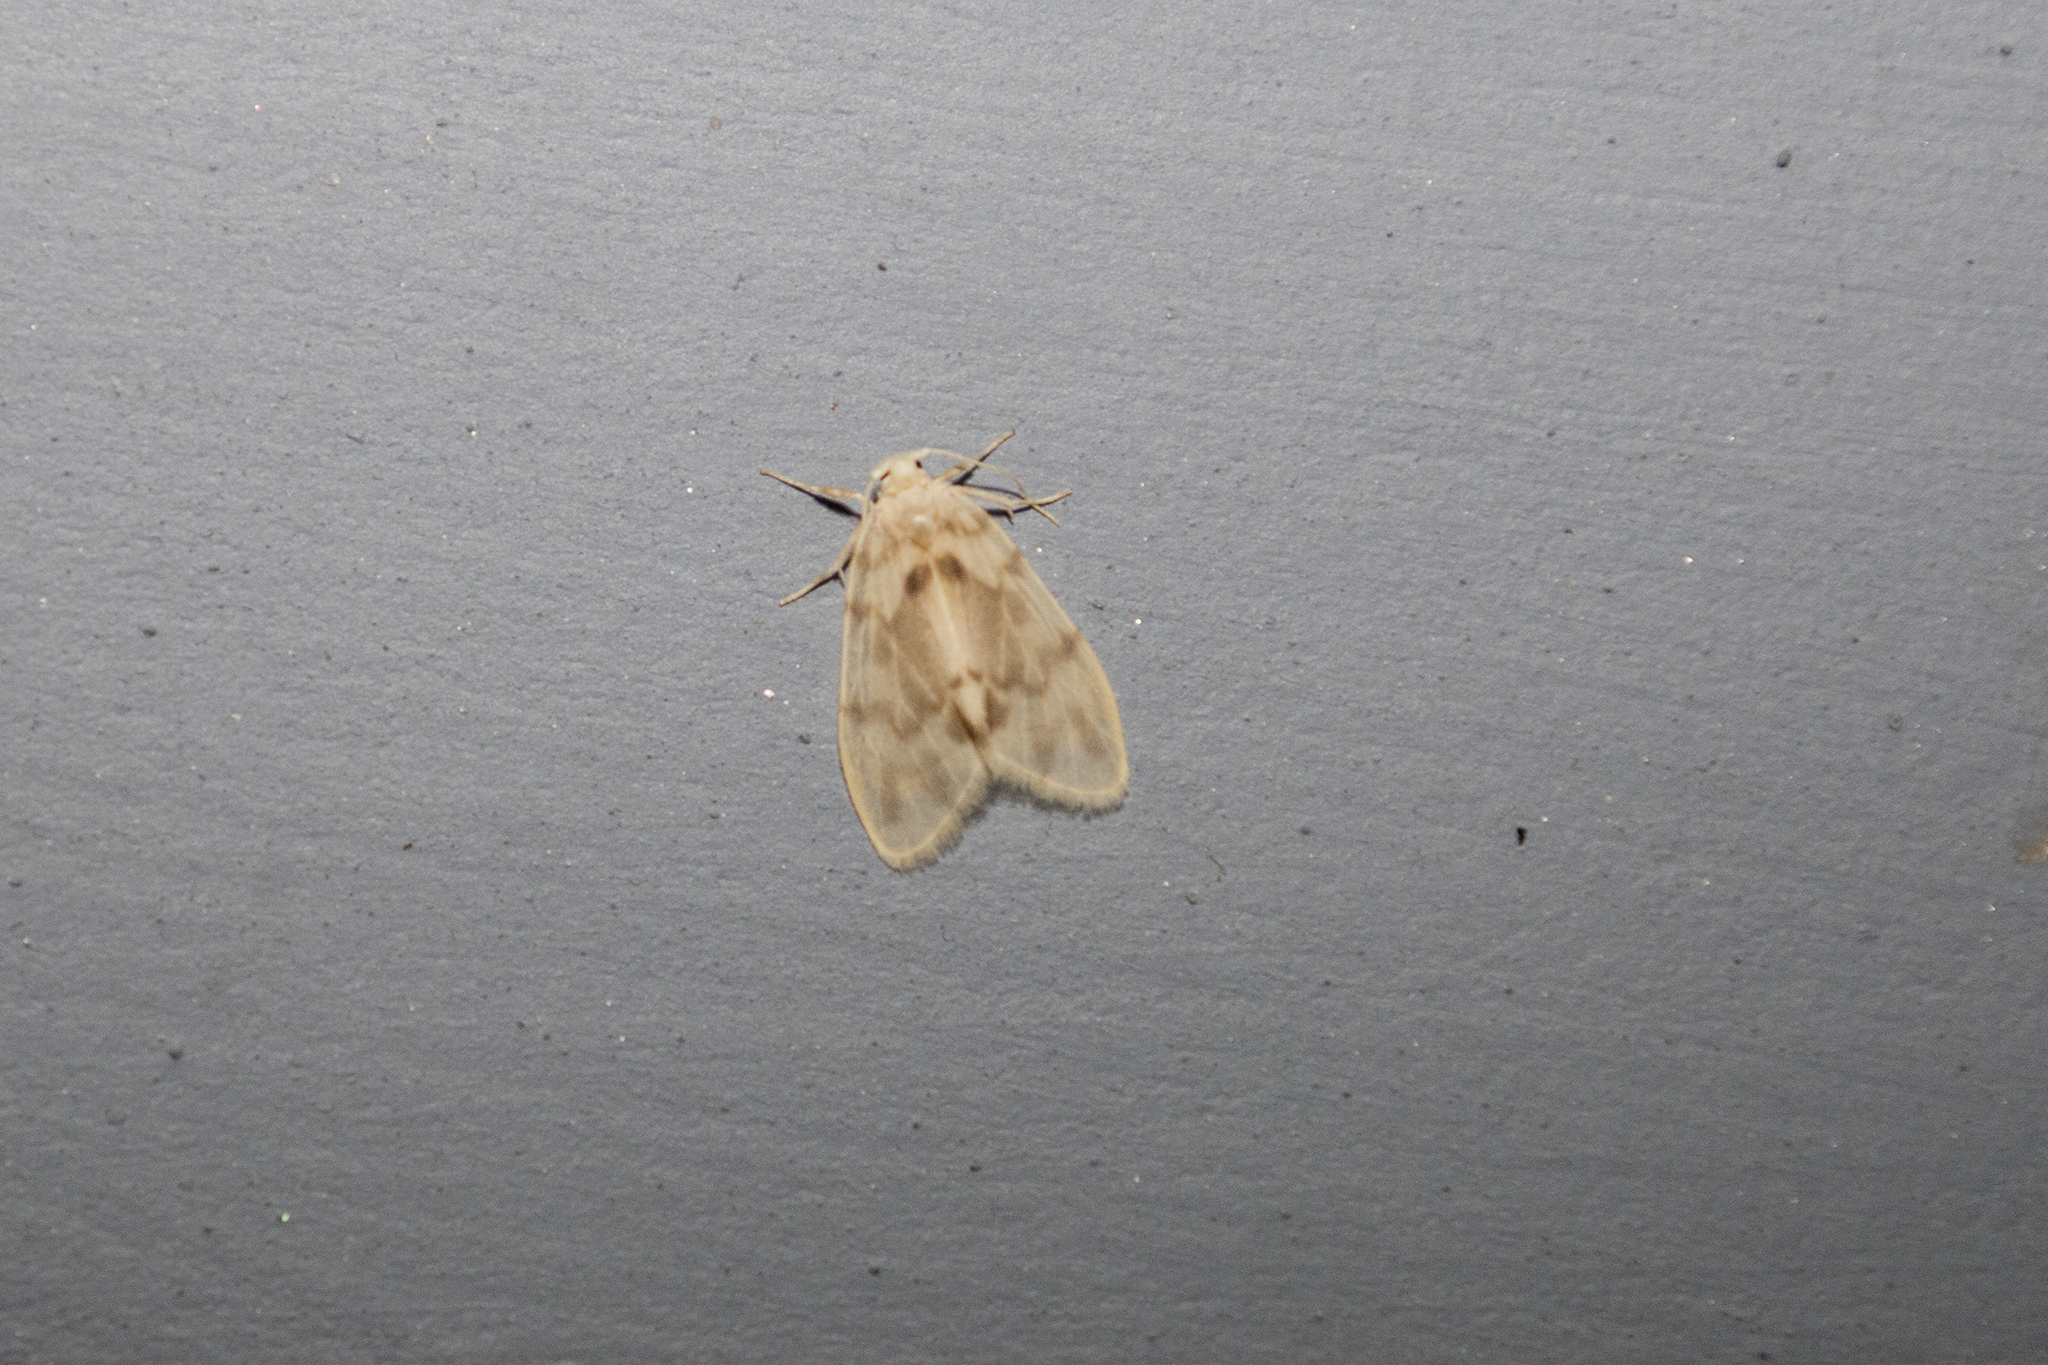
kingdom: Animalia
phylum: Arthropoda
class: Insecta
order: Lepidoptera
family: Erebidae
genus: Nudaria
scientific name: Nudaria fumidisca
